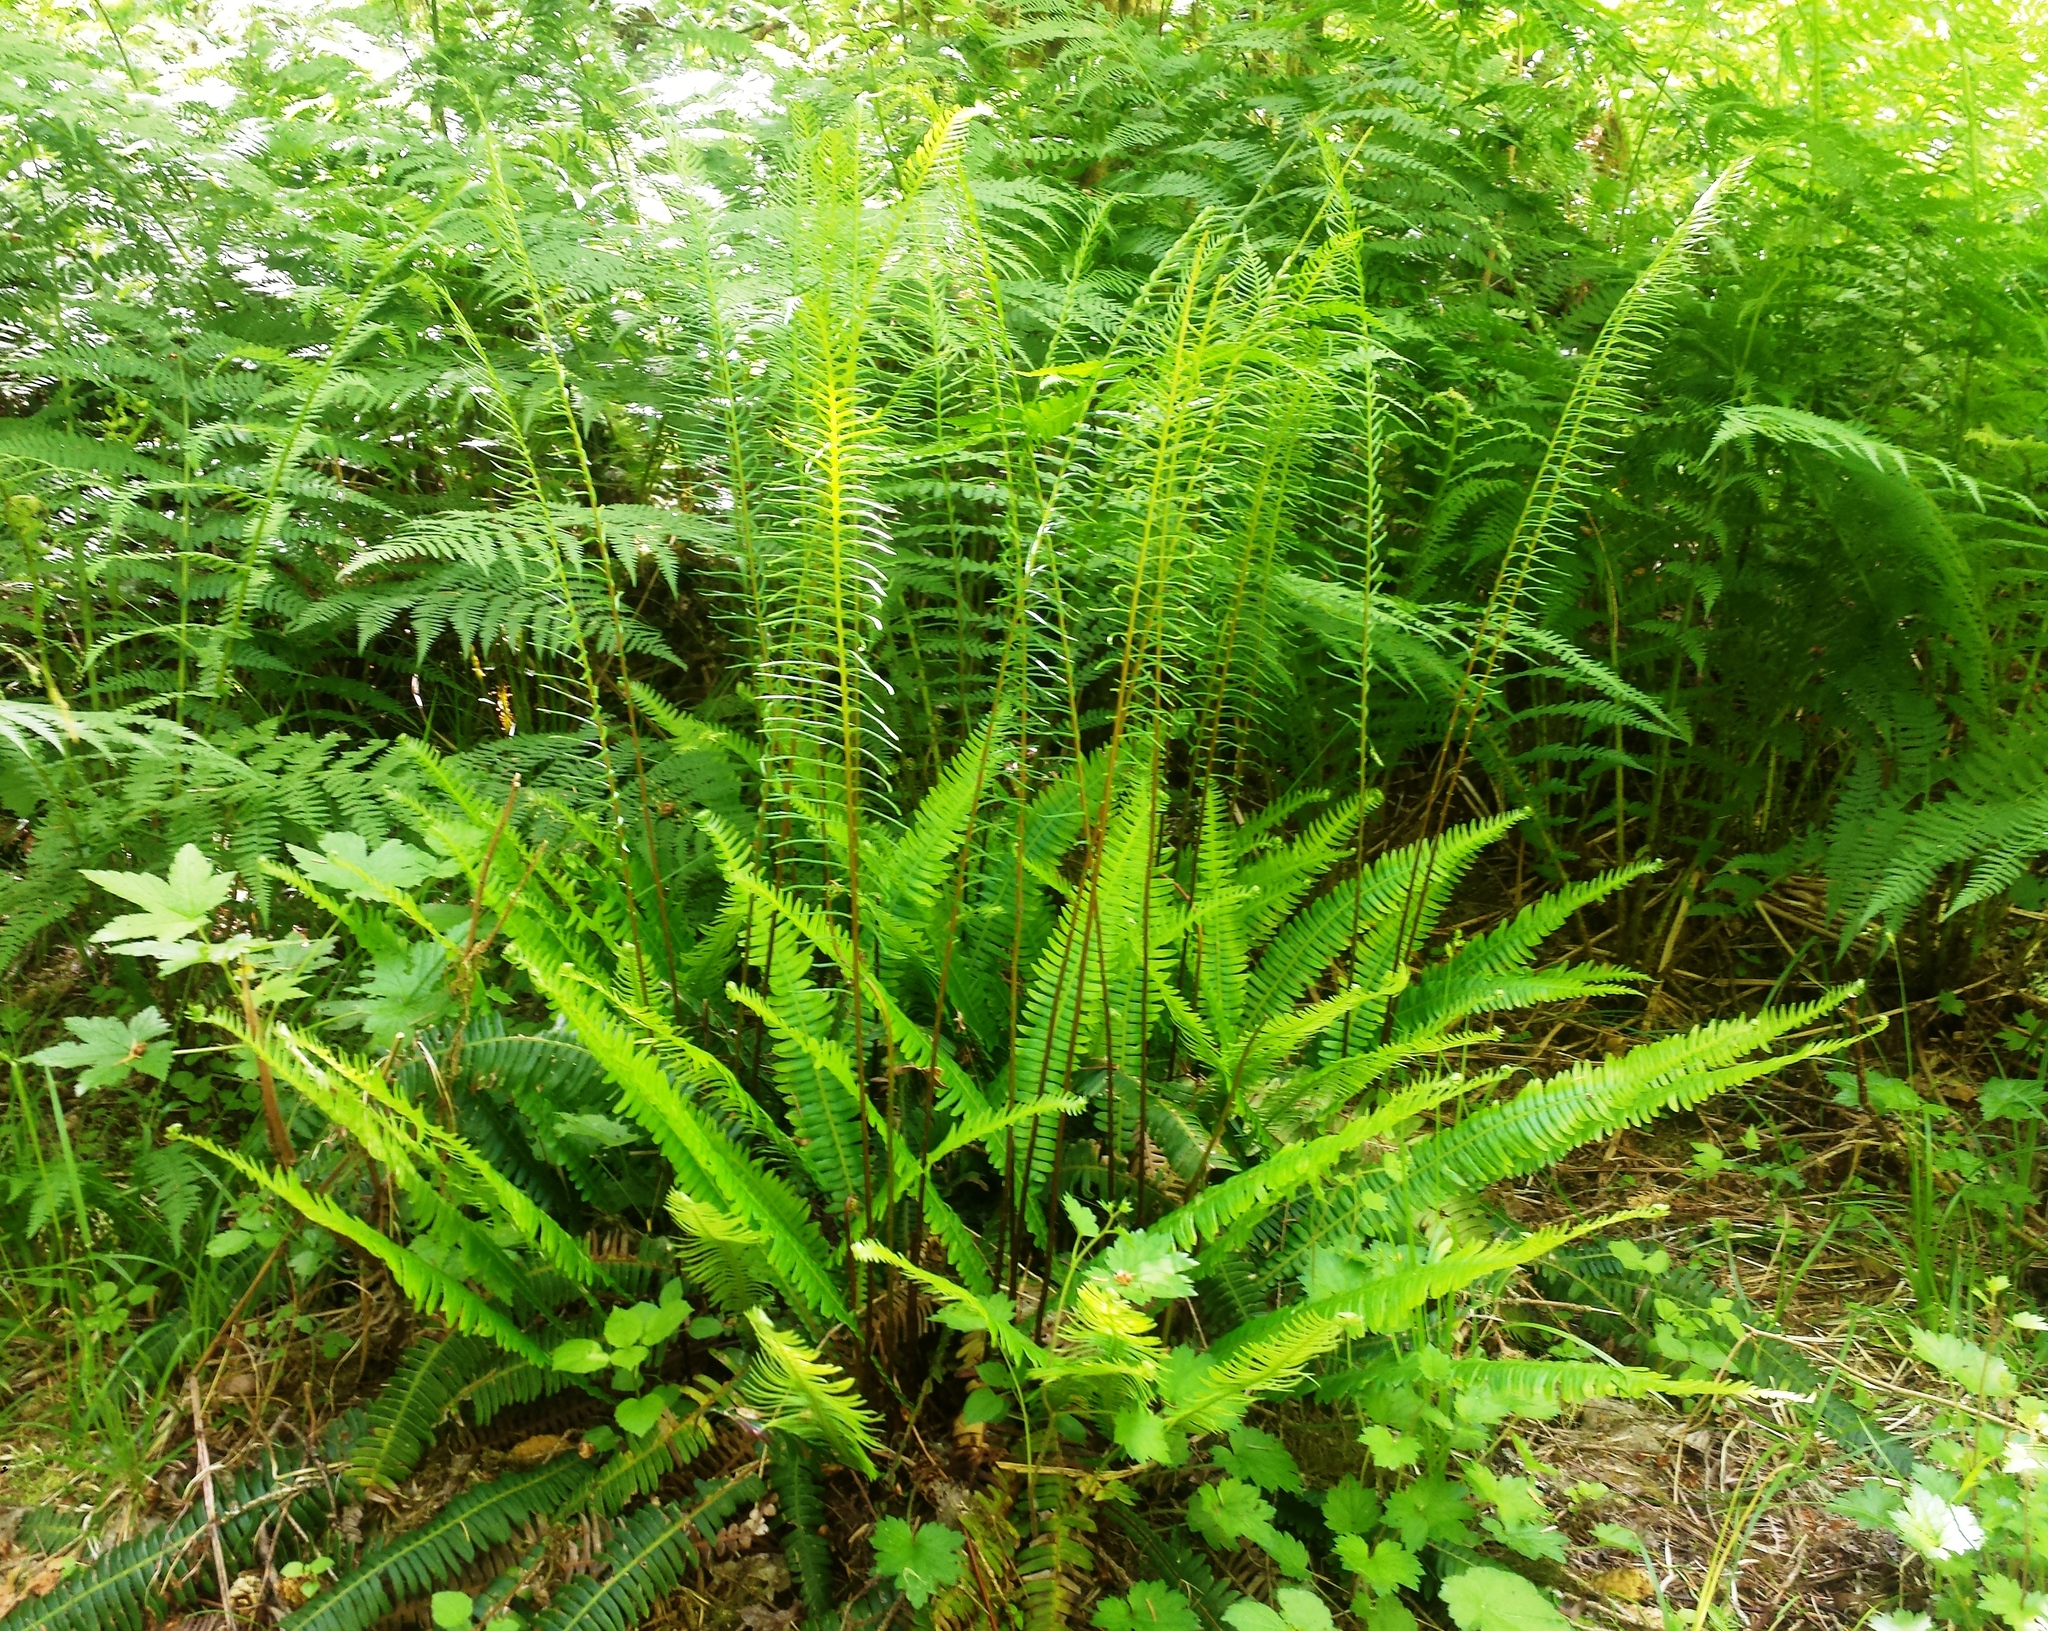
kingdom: Plantae
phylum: Tracheophyta
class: Polypodiopsida
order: Polypodiales
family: Blechnaceae
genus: Struthiopteris
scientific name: Struthiopteris spicant
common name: Deer fern
